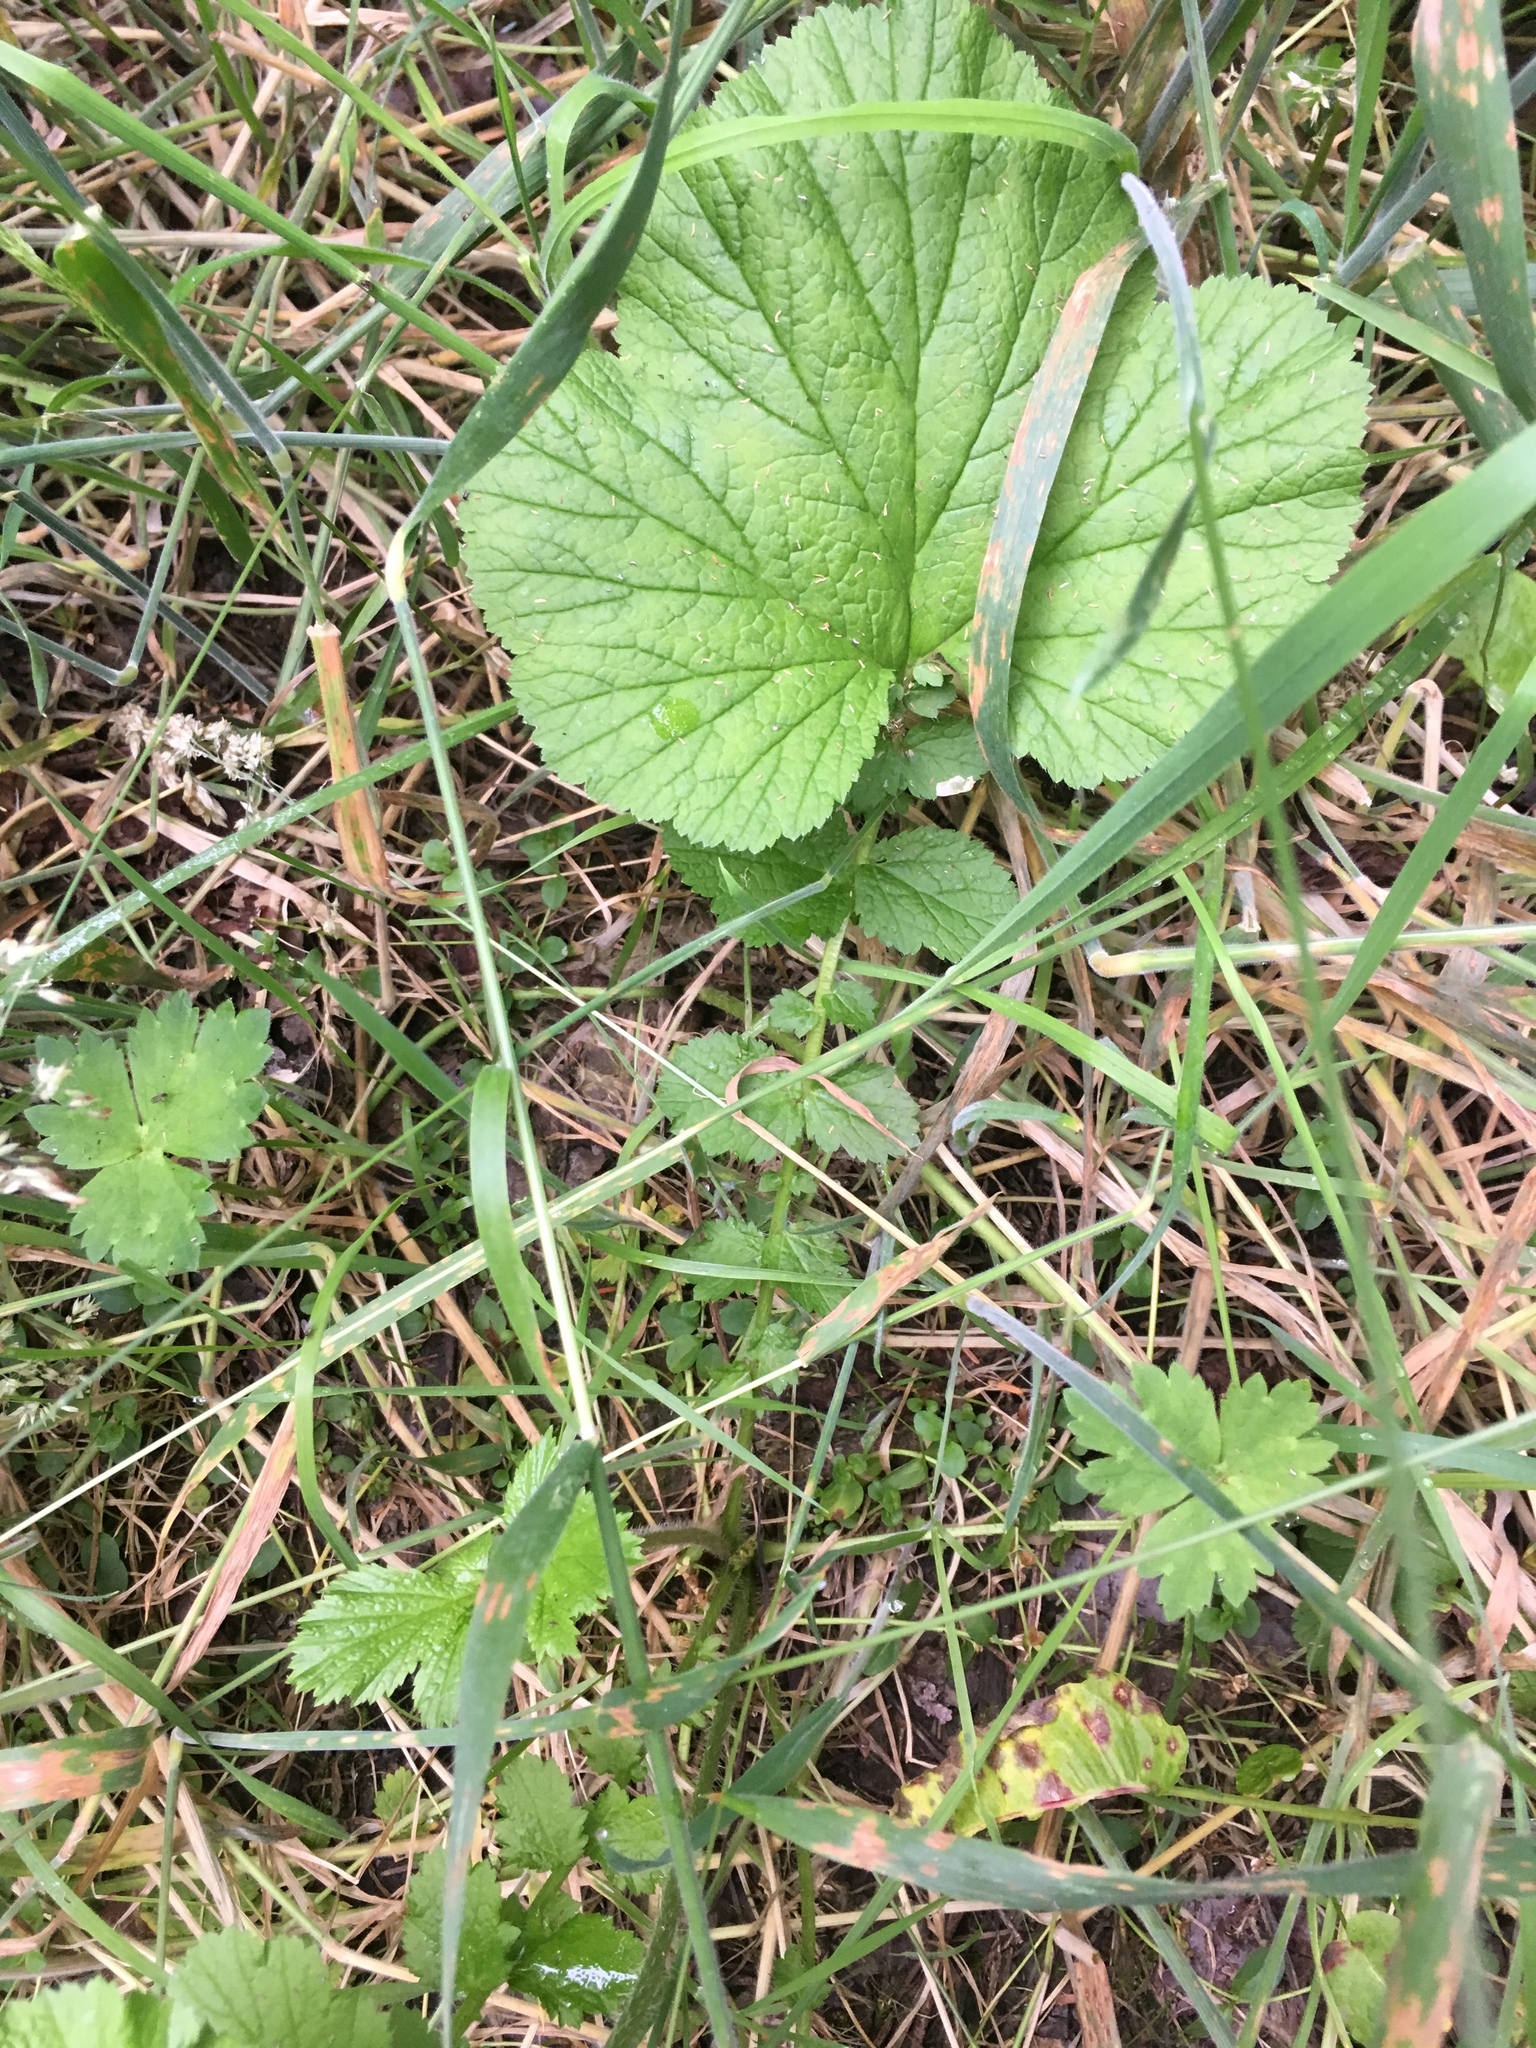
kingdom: Plantae
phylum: Tracheophyta
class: Magnoliopsida
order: Rosales
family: Rosaceae
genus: Geum
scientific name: Geum macrophyllum
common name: Large-leaved avens
